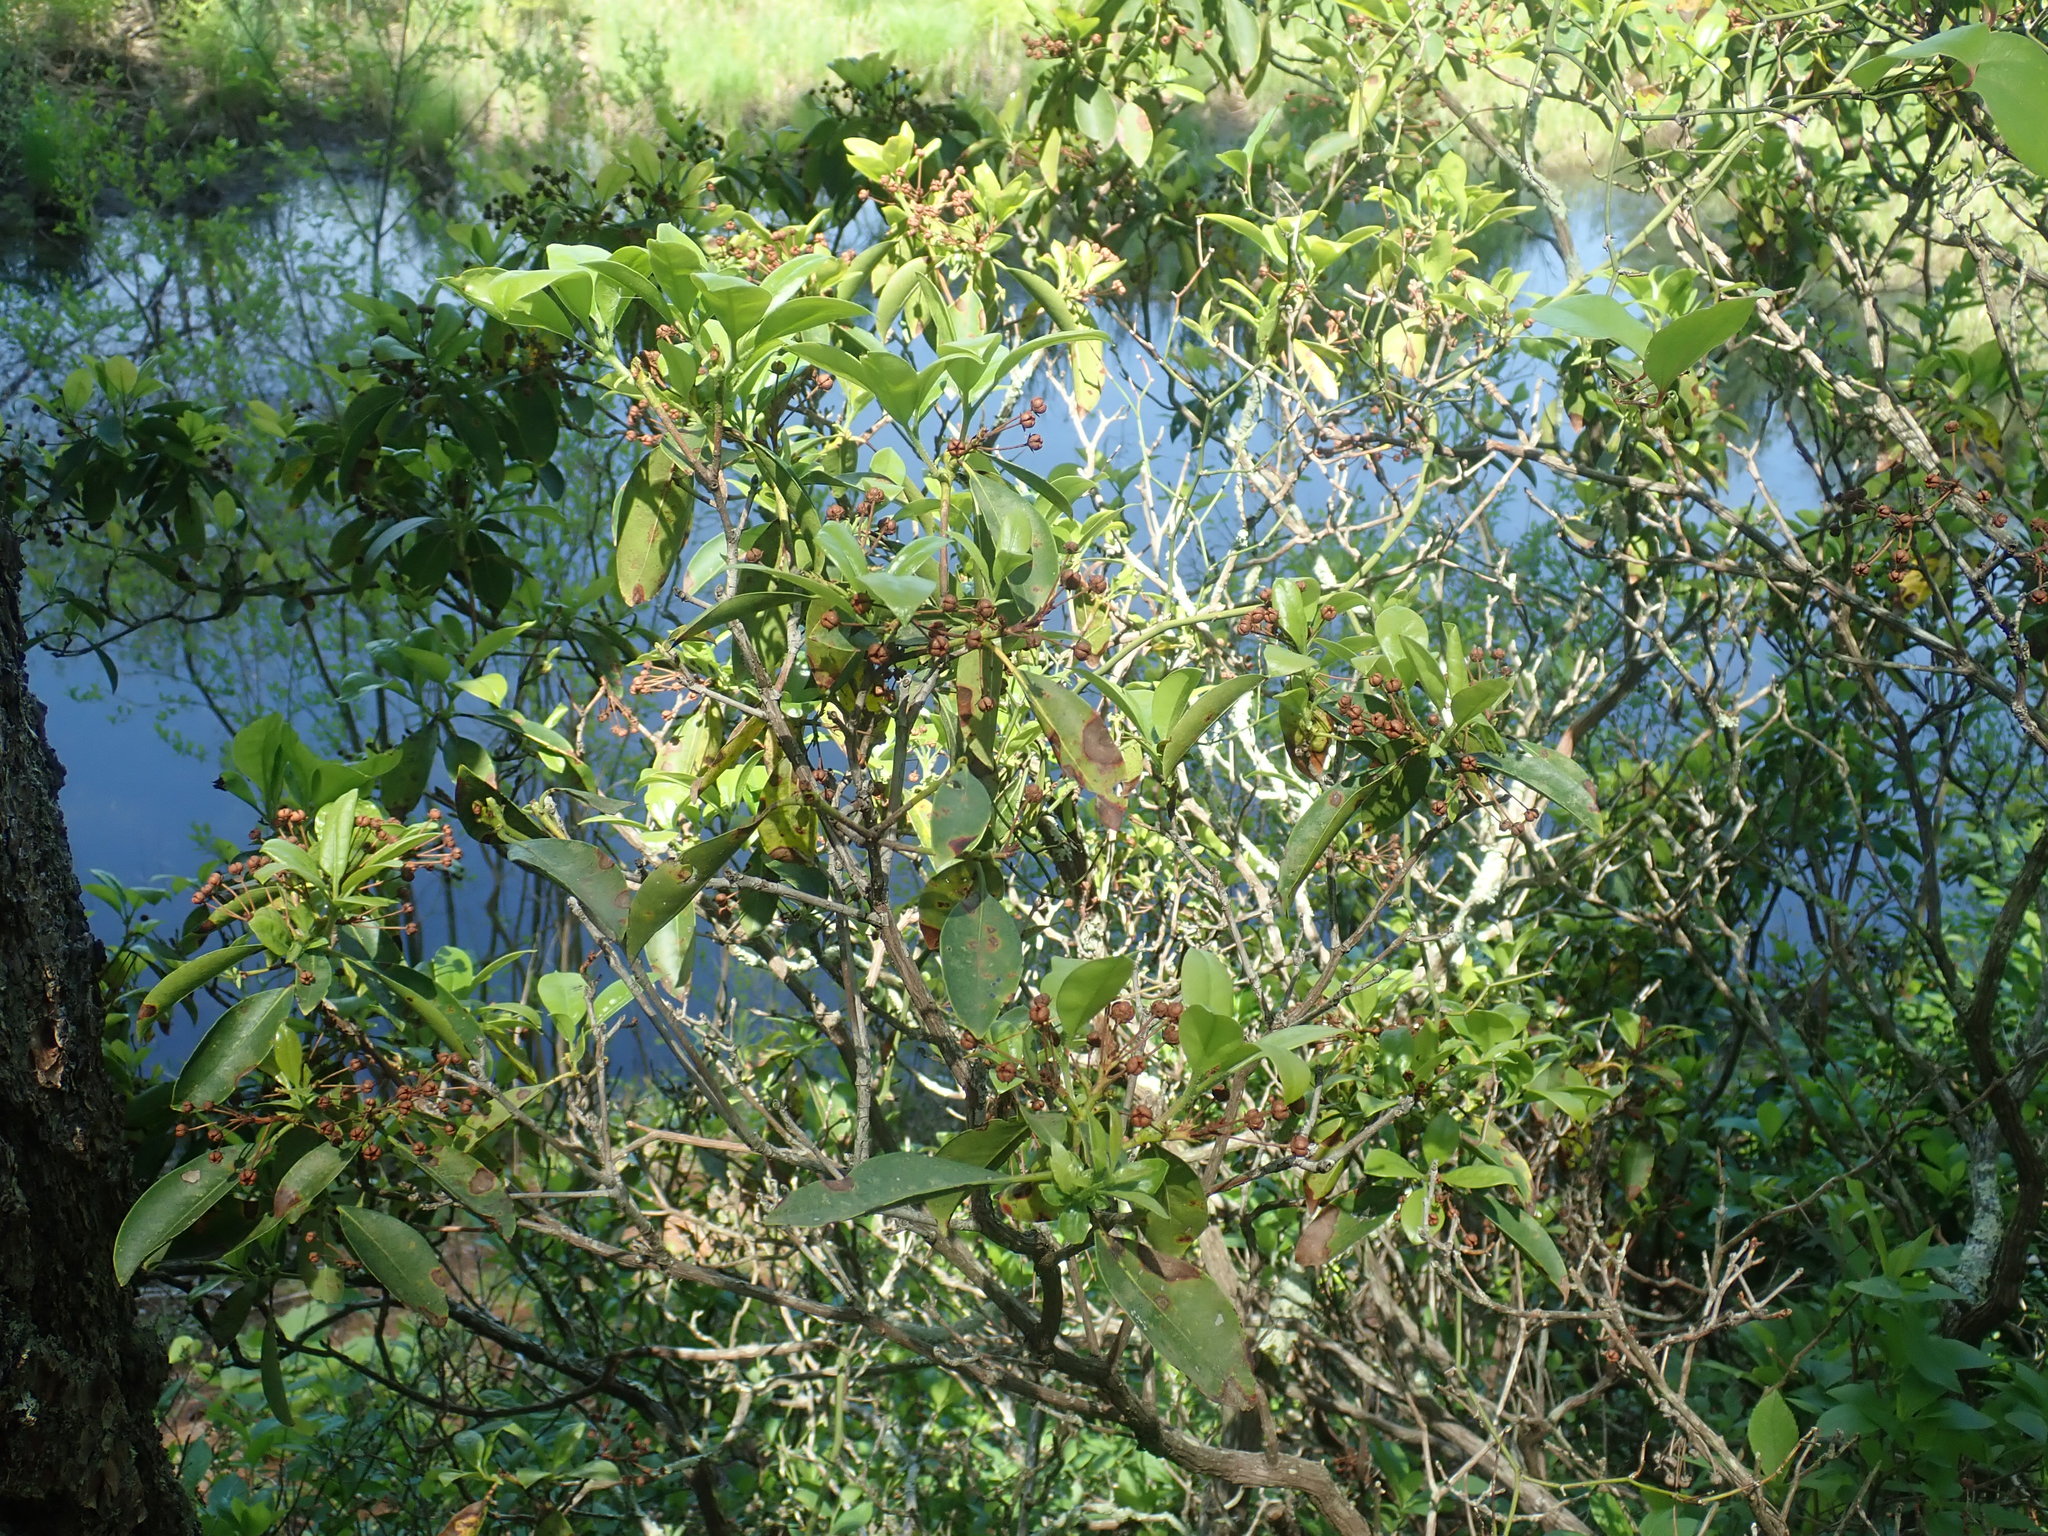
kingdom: Plantae
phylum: Tracheophyta
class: Magnoliopsida
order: Ericales
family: Ericaceae
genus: Kalmia
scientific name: Kalmia latifolia
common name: Mountain-laurel
